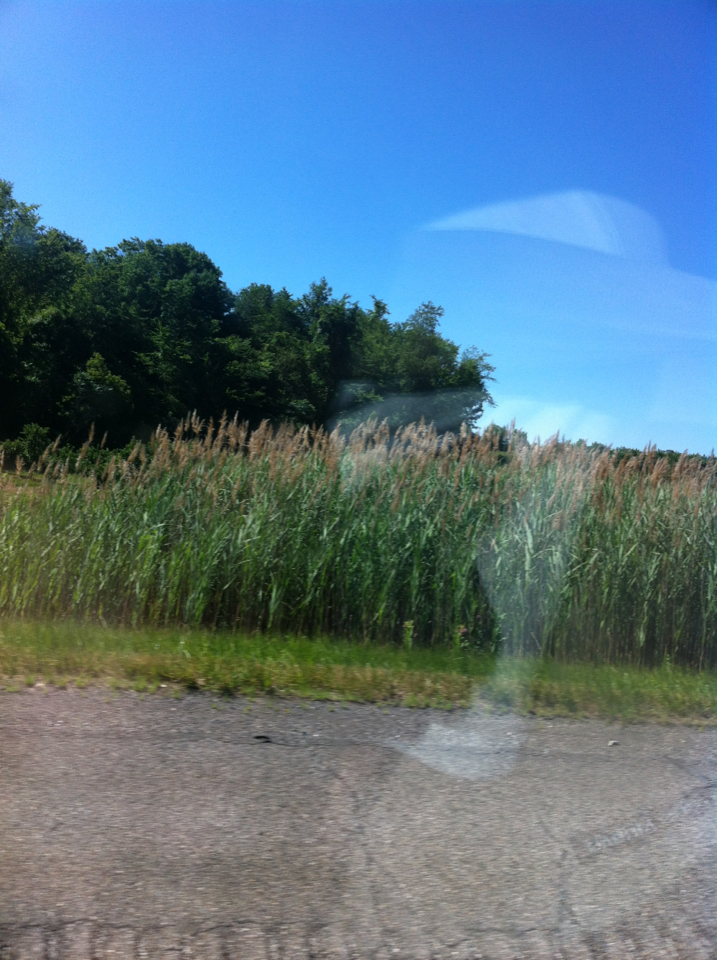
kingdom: Plantae
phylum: Tracheophyta
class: Liliopsida
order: Poales
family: Poaceae
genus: Phragmites
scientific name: Phragmites australis
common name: Common reed
